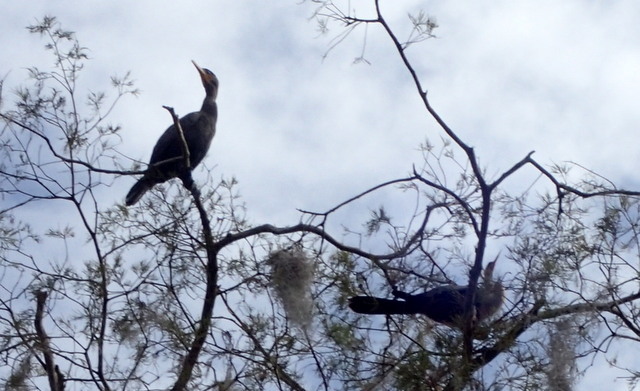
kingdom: Animalia
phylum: Chordata
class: Aves
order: Suliformes
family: Anhingidae
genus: Anhinga
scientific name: Anhinga anhinga
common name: Anhinga
